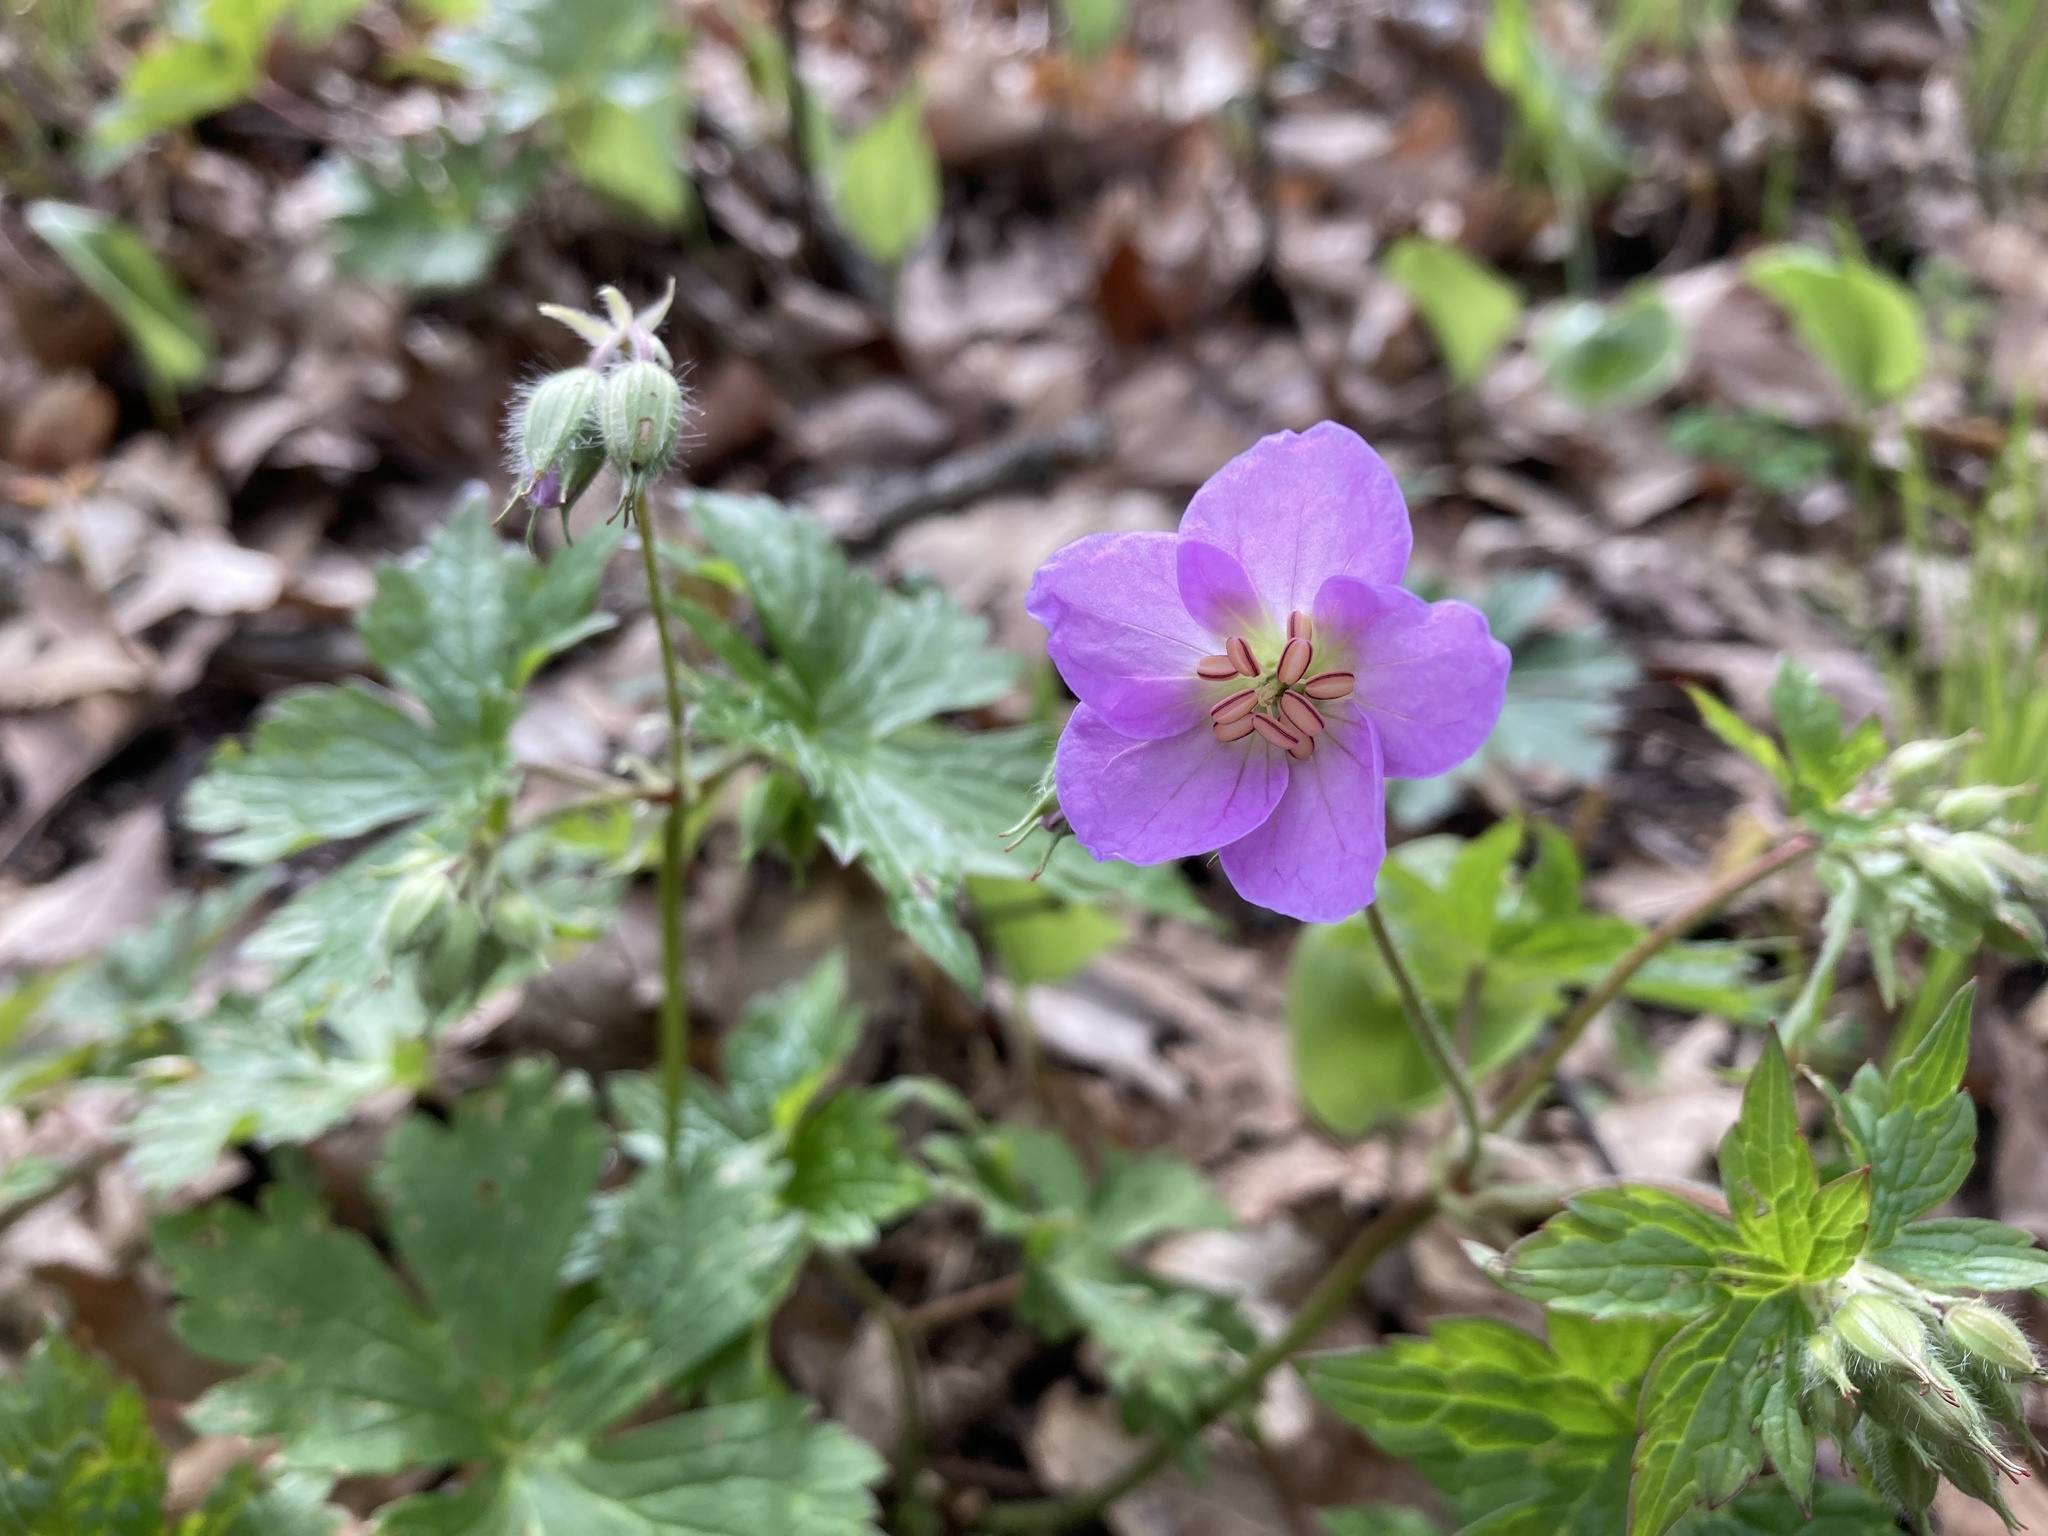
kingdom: Plantae
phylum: Tracheophyta
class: Magnoliopsida
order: Geraniales
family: Geraniaceae
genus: Geranium
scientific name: Geranium maculatum
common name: Spotted geranium
